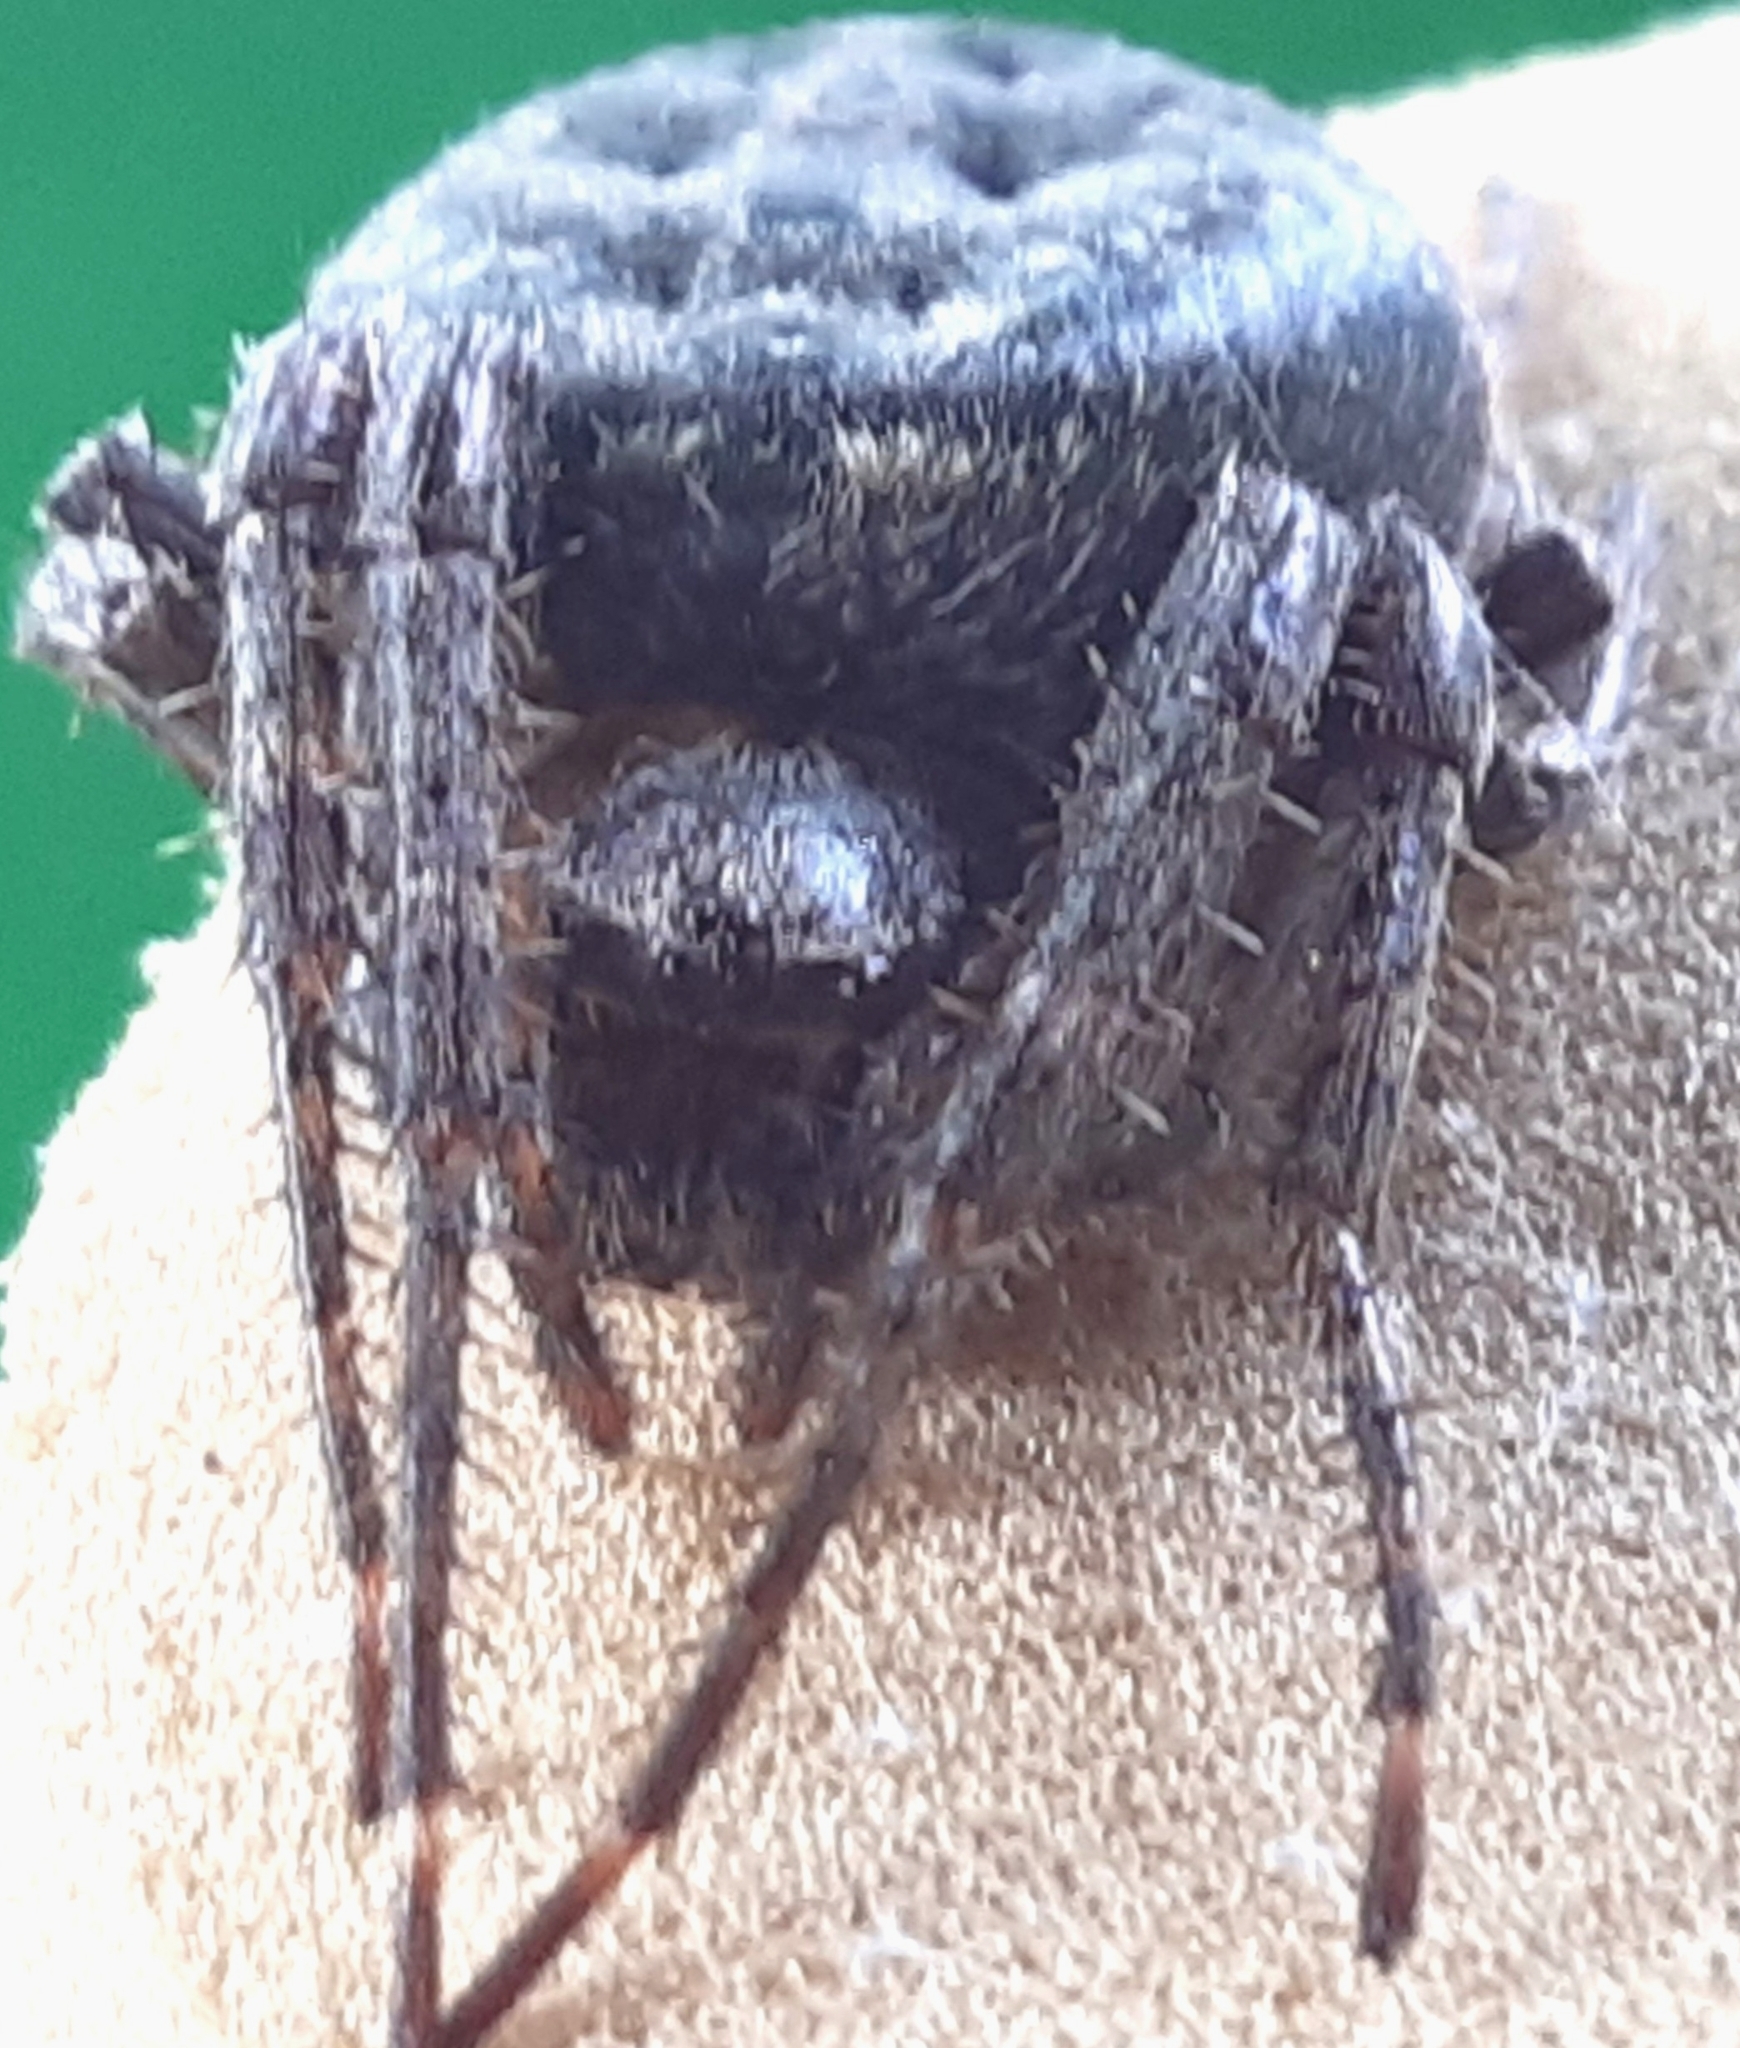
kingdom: Animalia
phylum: Arthropoda
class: Arachnida
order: Araneae
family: Araneidae
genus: Nuctenea
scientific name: Nuctenea umbratica
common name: Toad spider
